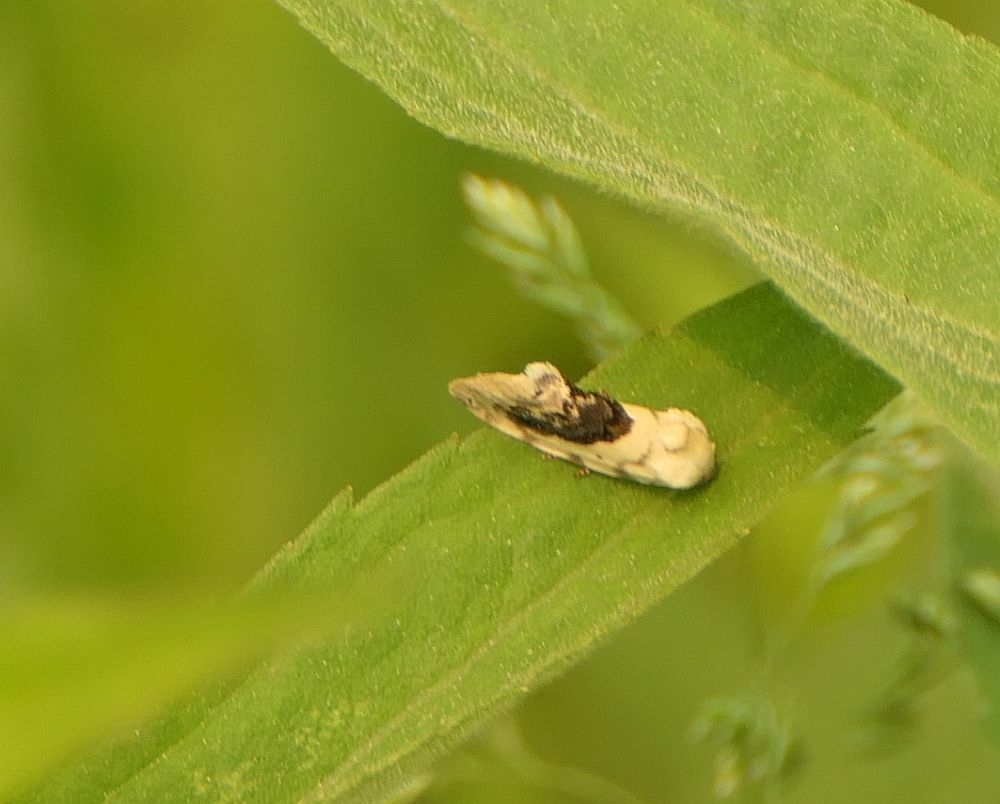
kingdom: Animalia
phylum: Arthropoda
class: Insecta
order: Lepidoptera
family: Noctuidae
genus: Acontia
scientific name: Acontia erastrioides
